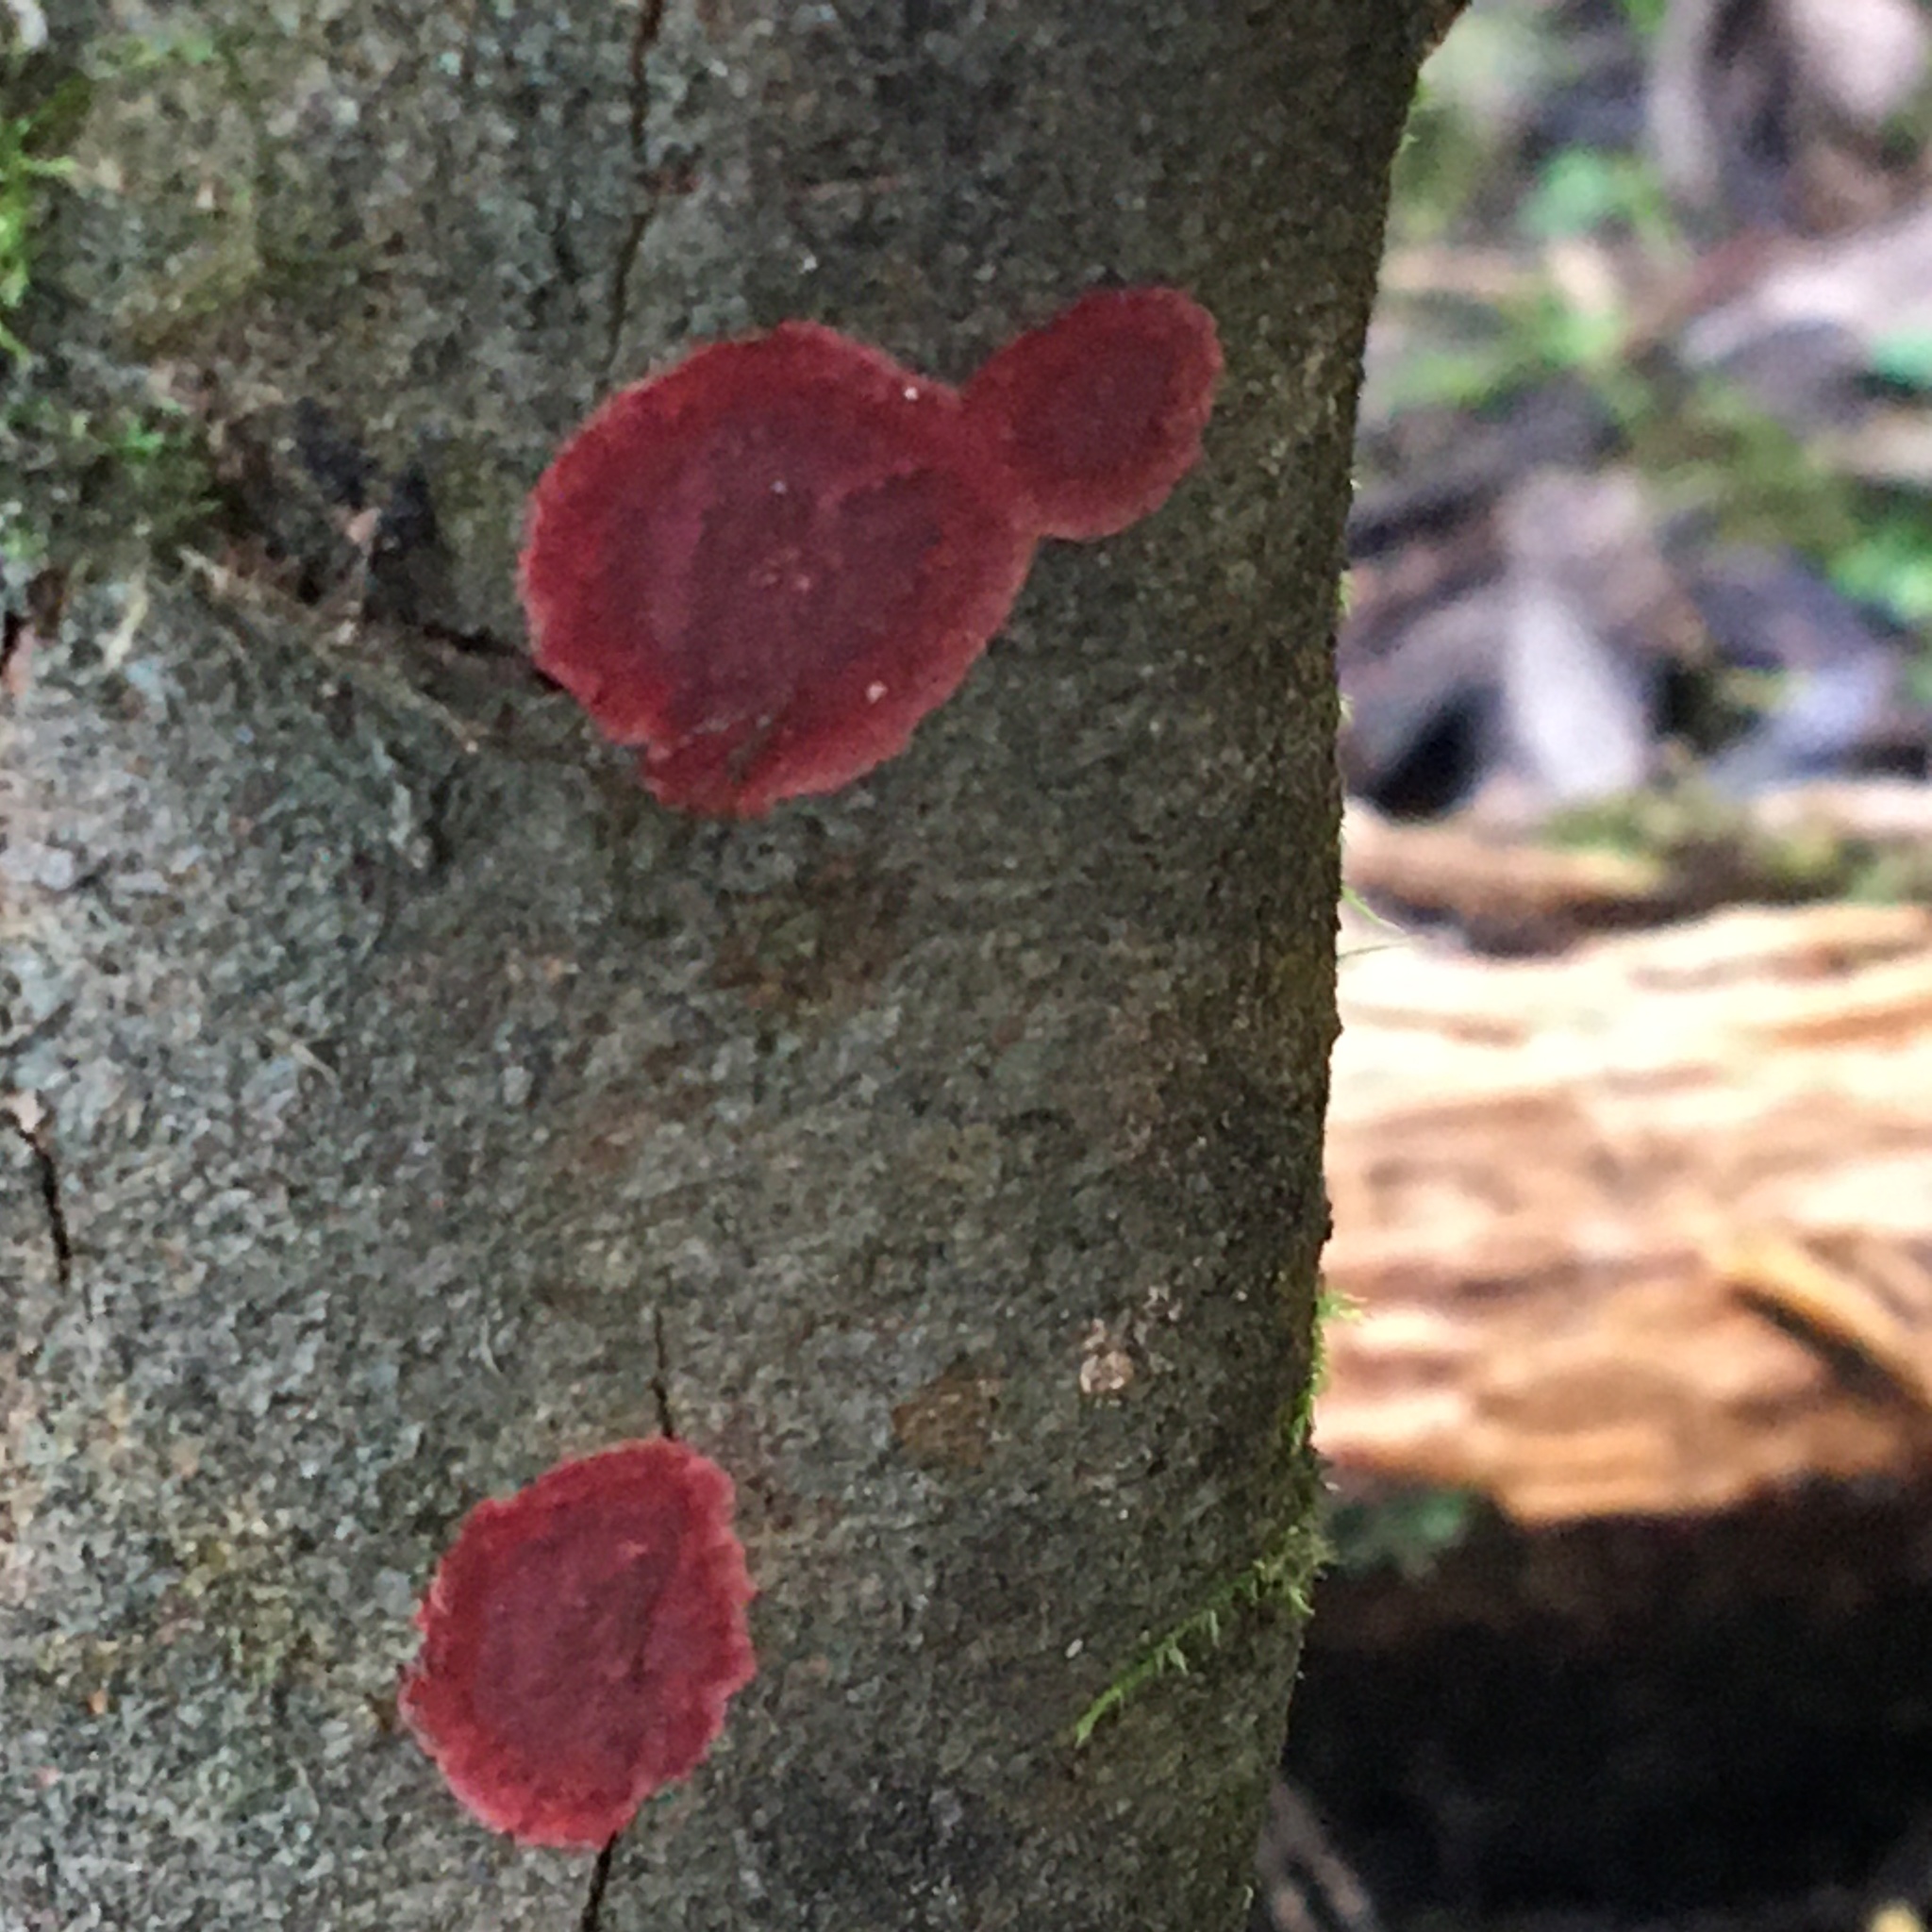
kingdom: Fungi
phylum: Basidiomycota
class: Agaricomycetes
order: Hymenochaetales
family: Hymenochaetaceae
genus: Hymenochaete
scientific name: Hymenochaete cruenta
